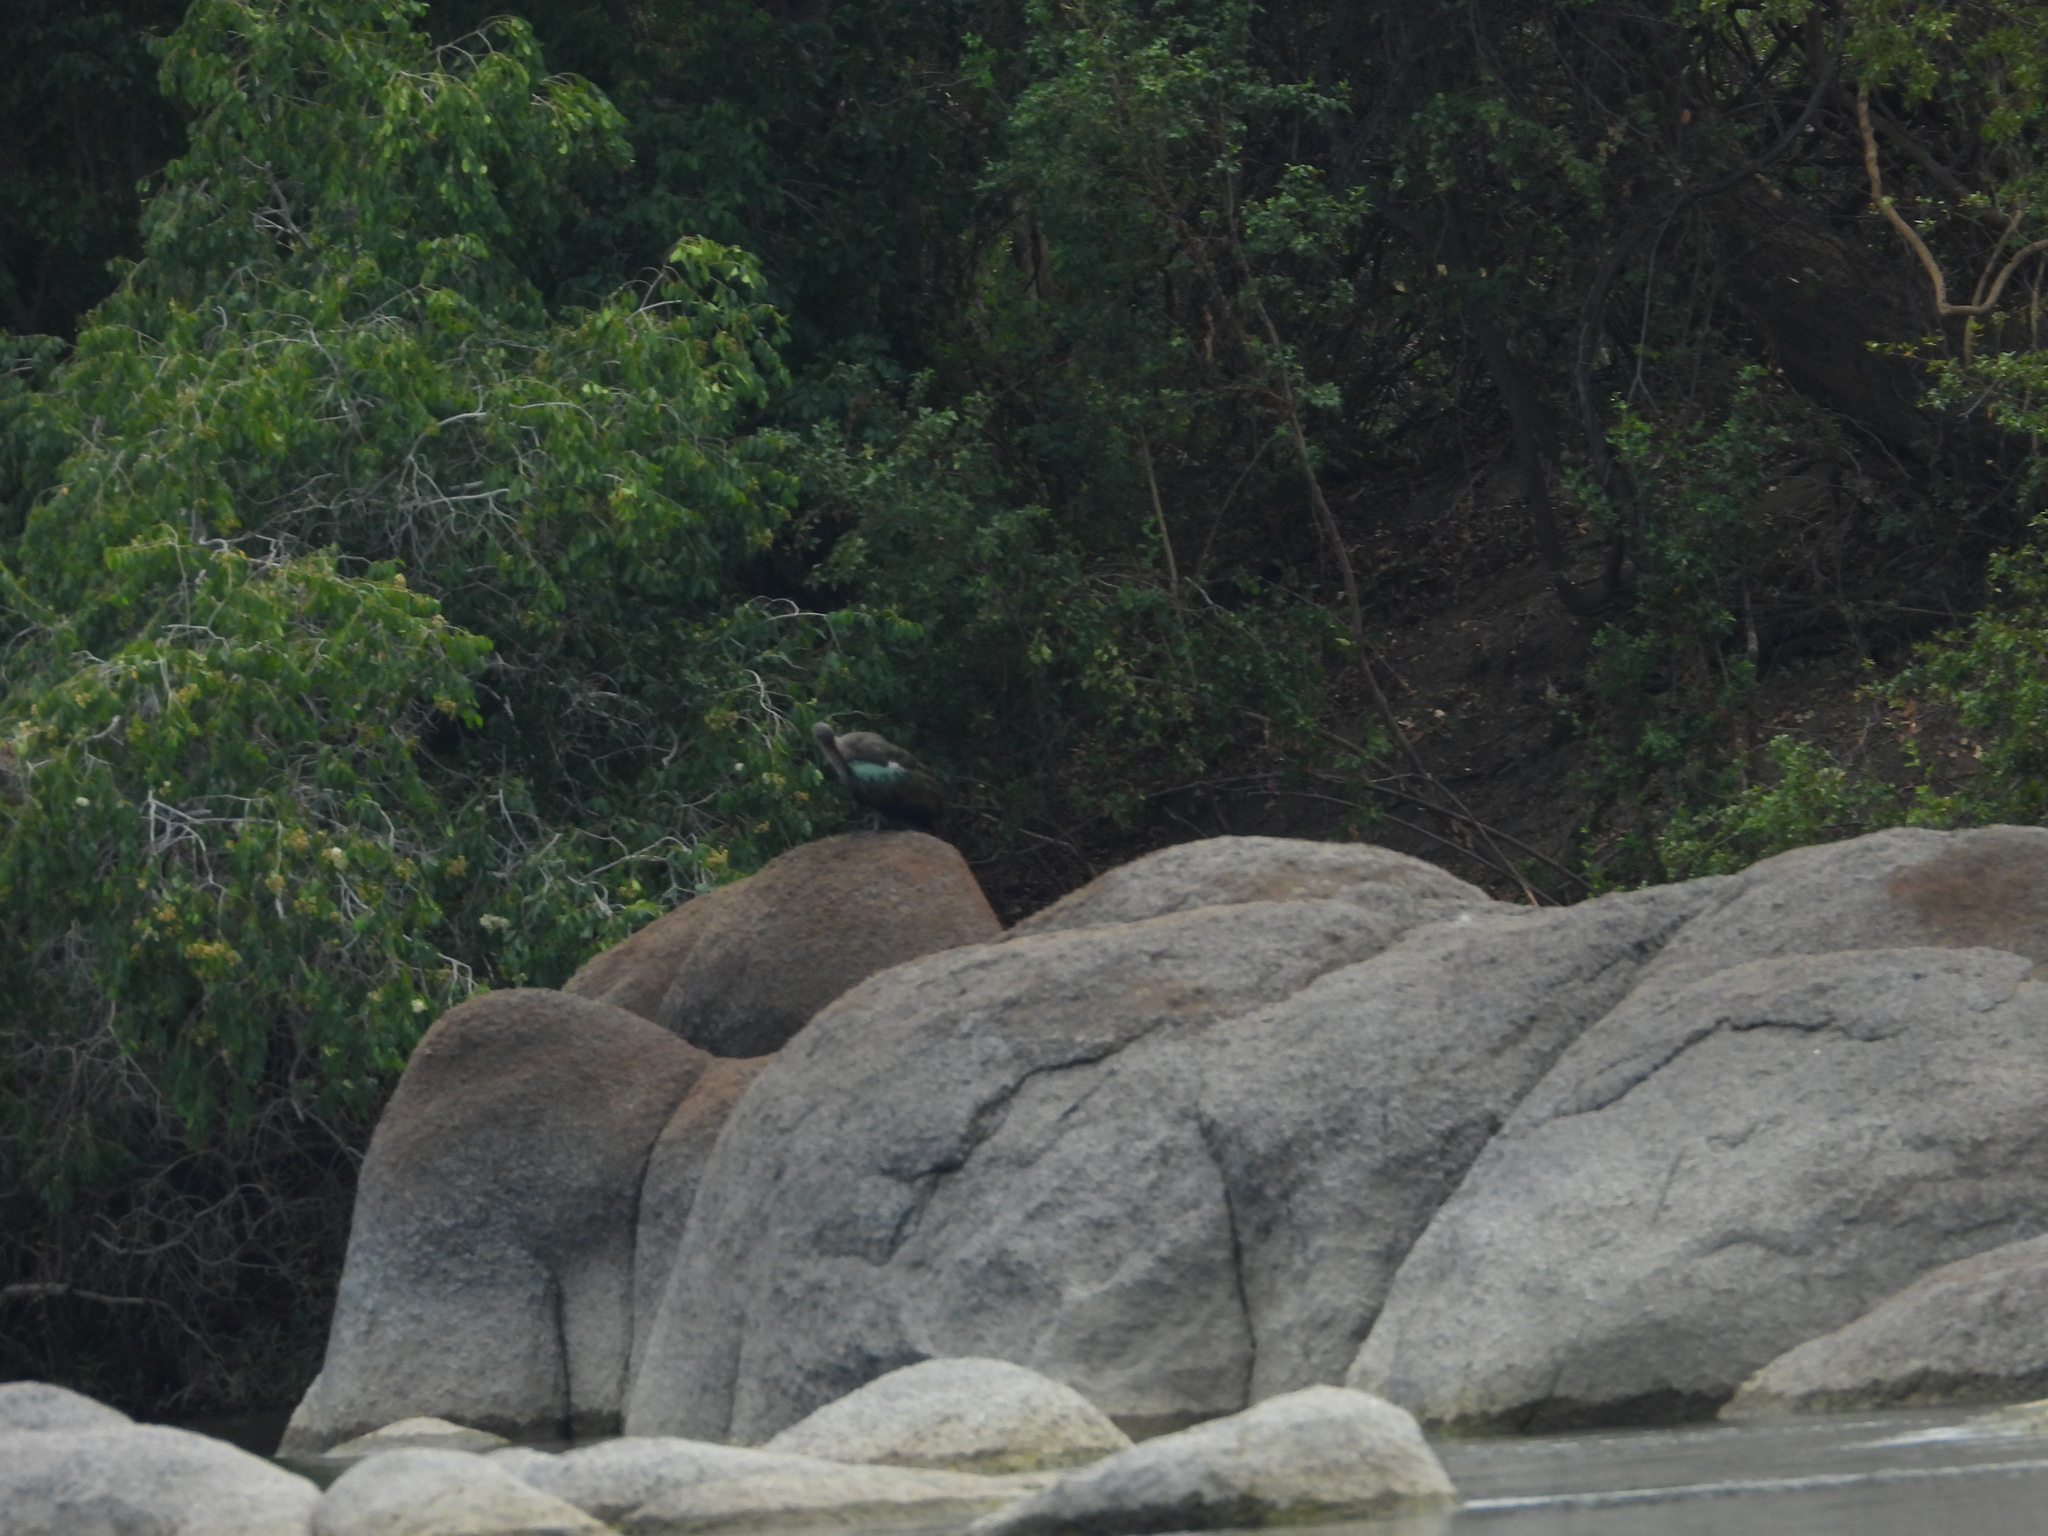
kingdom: Animalia
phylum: Chordata
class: Aves
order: Pelecaniformes
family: Threskiornithidae
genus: Bostrychia
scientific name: Bostrychia hagedash
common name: Hadada ibis
